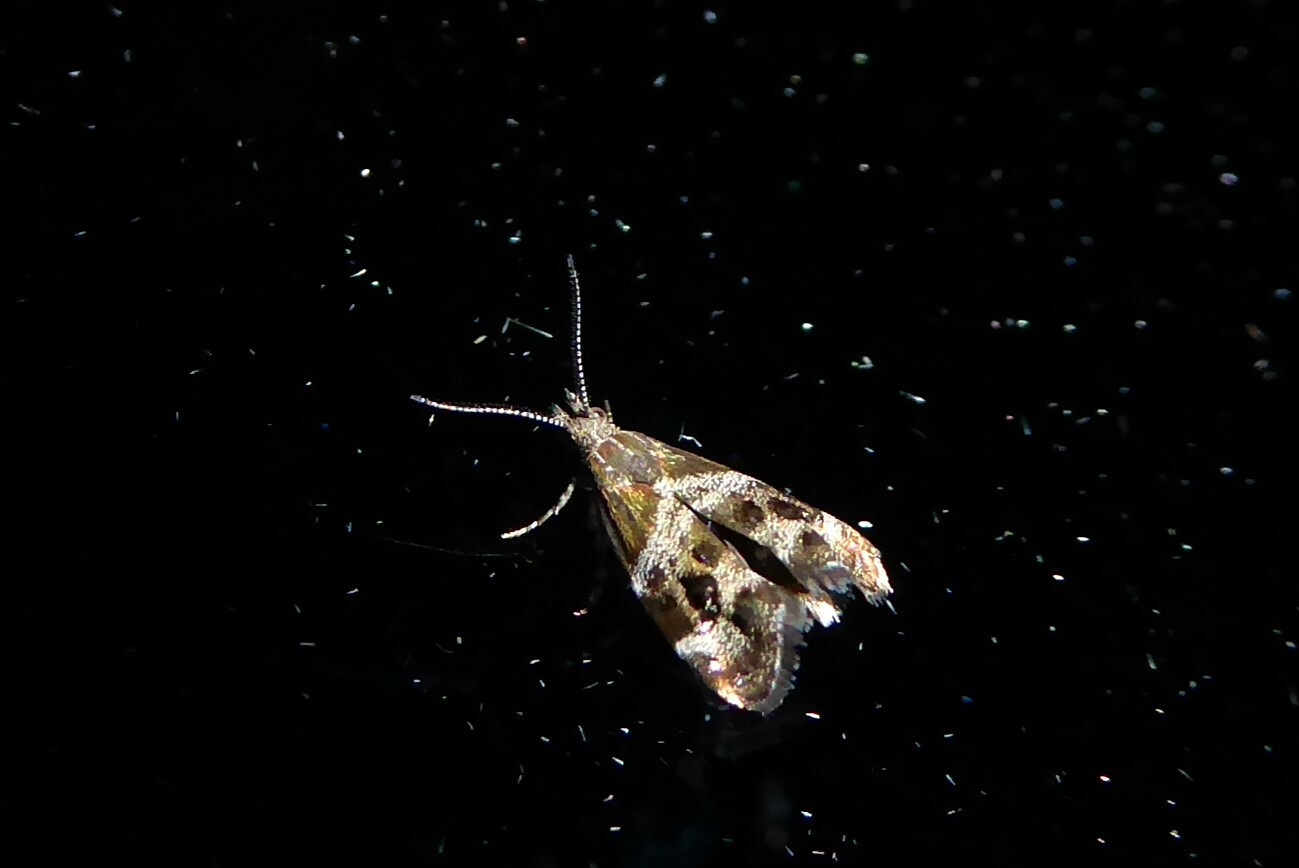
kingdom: Animalia
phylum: Arthropoda
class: Insecta
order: Lepidoptera
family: Choreutidae
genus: Tebenna
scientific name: Tebenna micalis
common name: Vagrant twitcher
